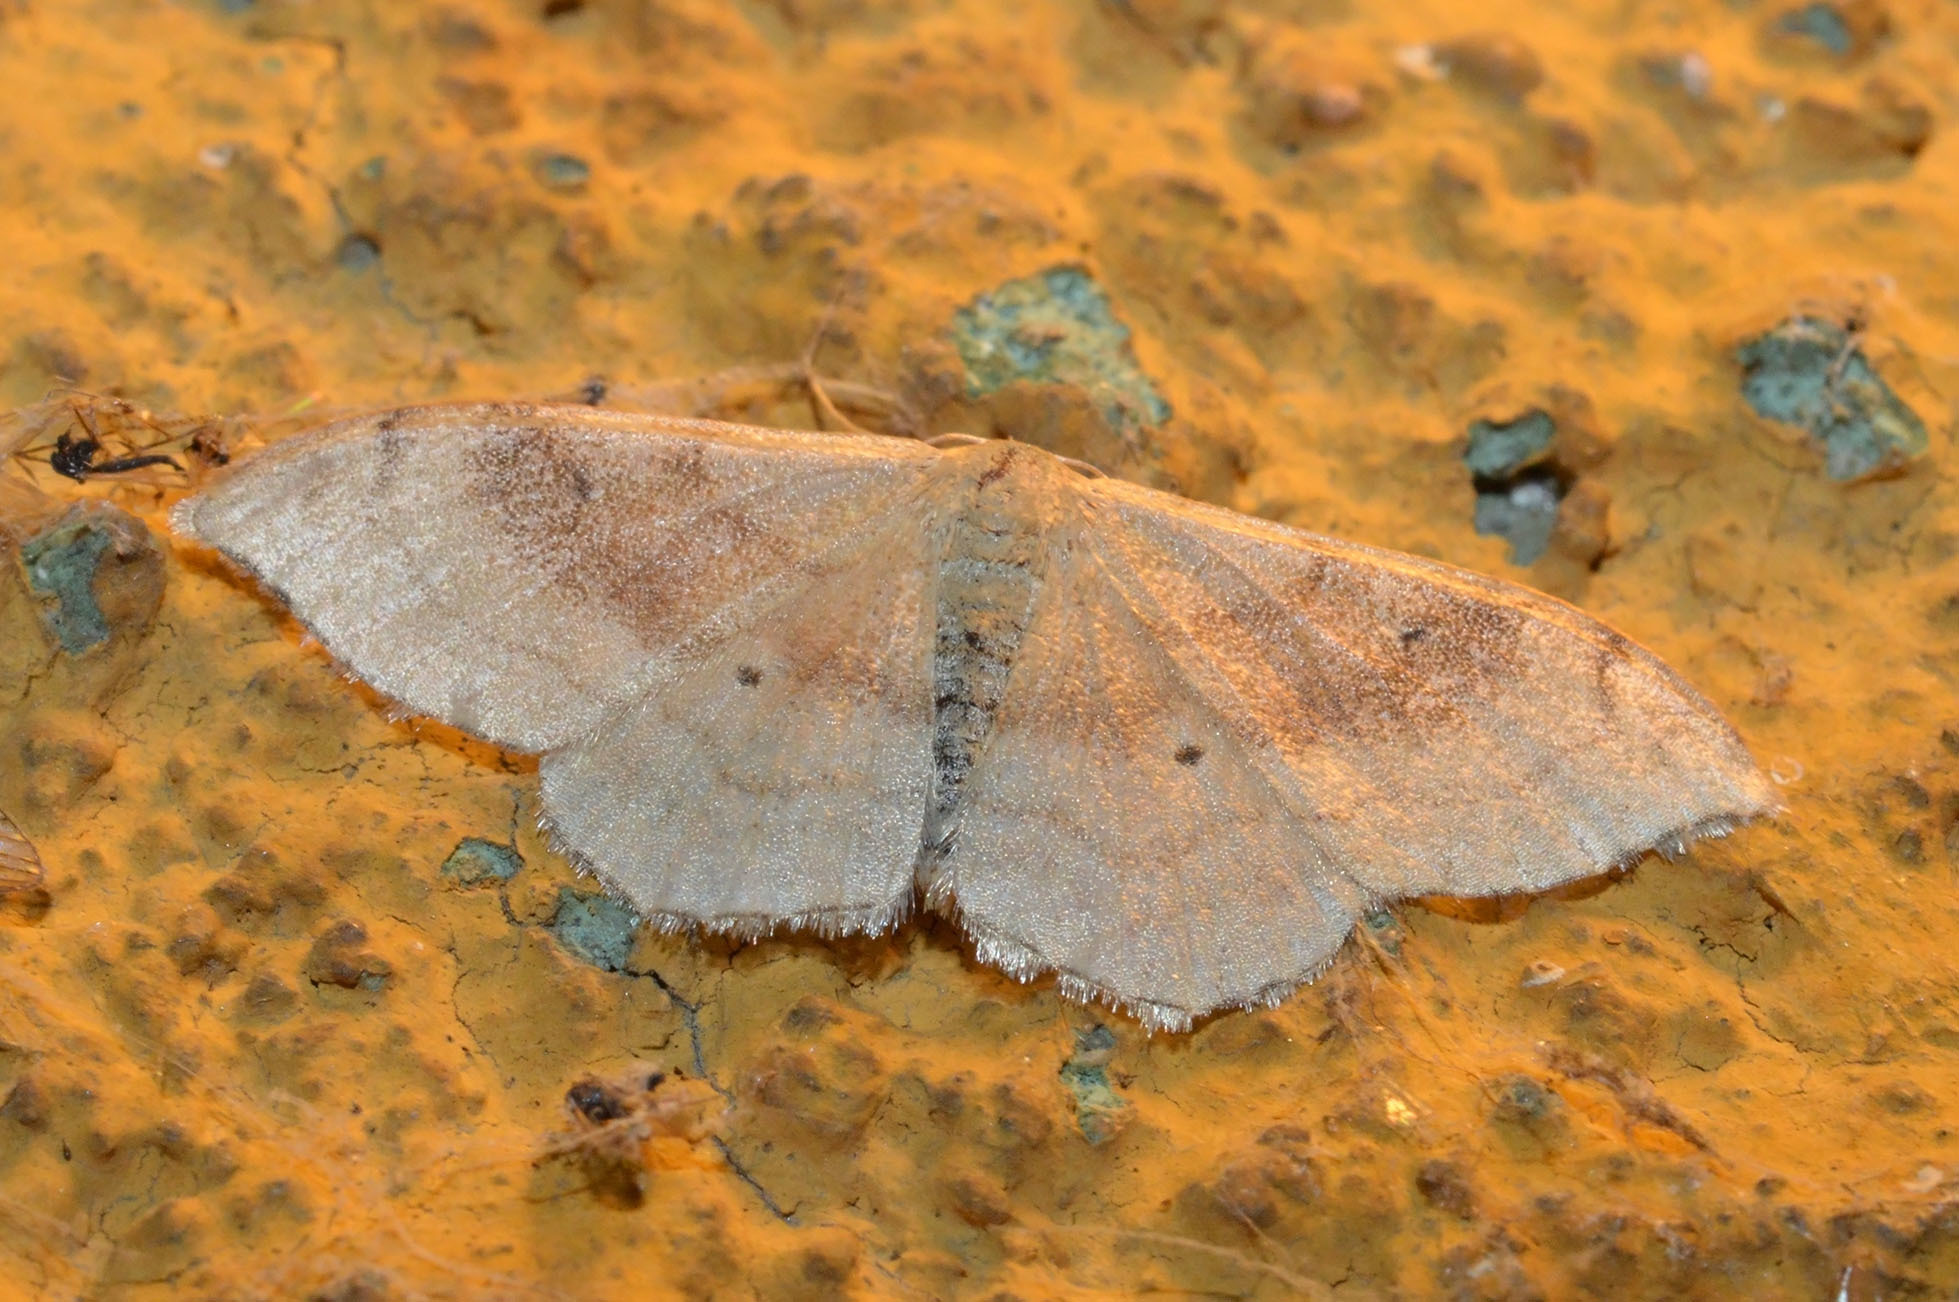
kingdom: Animalia
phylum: Arthropoda
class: Insecta
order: Lepidoptera
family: Geometridae
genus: Idaea
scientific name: Idaea degeneraria
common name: Portland ribbon wave
